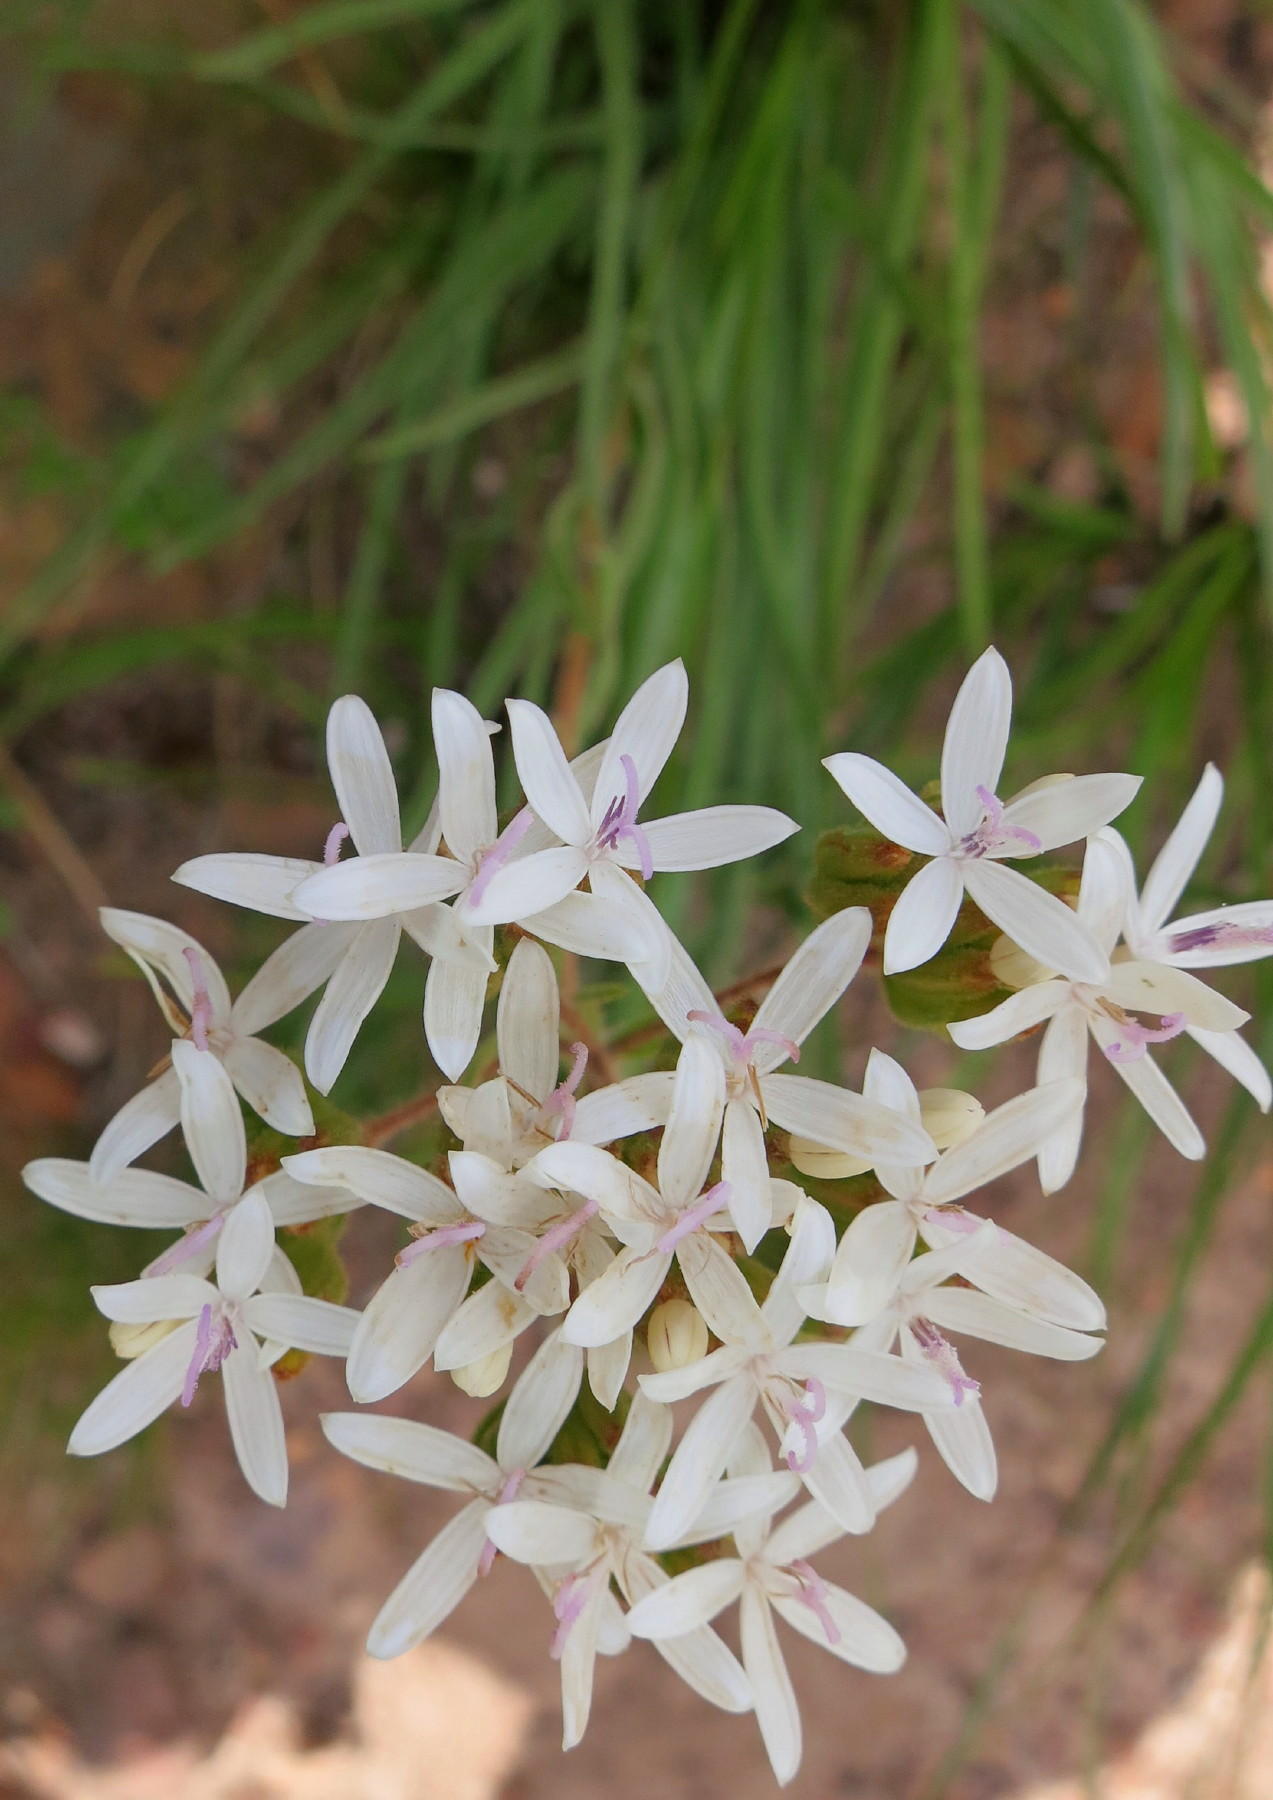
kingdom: Plantae
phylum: Tracheophyta
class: Magnoliopsida
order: Asterales
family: Asteraceae
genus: Corymbium
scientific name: Corymbium villosum
